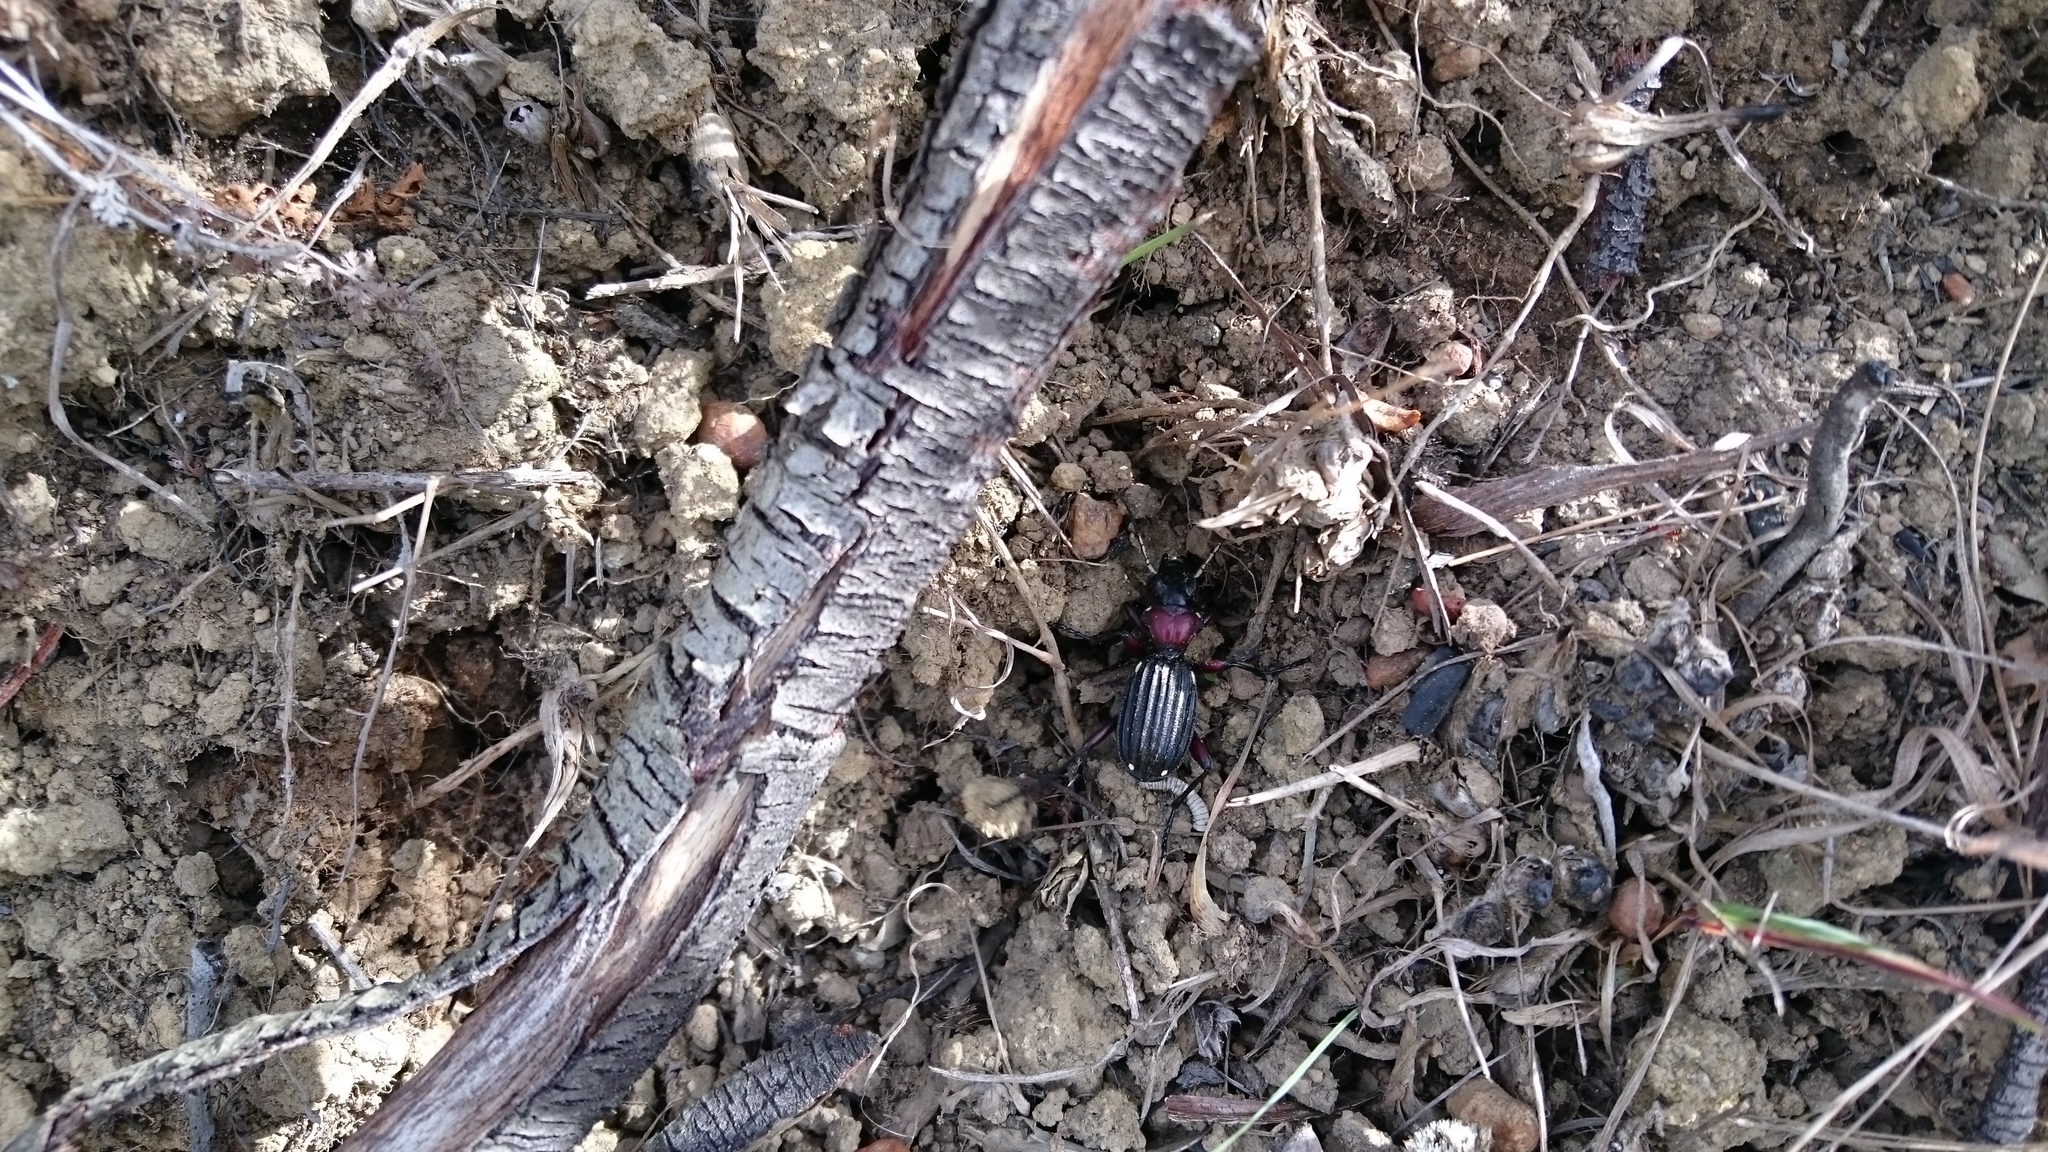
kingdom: Animalia
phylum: Arthropoda
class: Insecta
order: Coleoptera
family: Carabidae
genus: Anthia
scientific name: Anthia decemguttata
